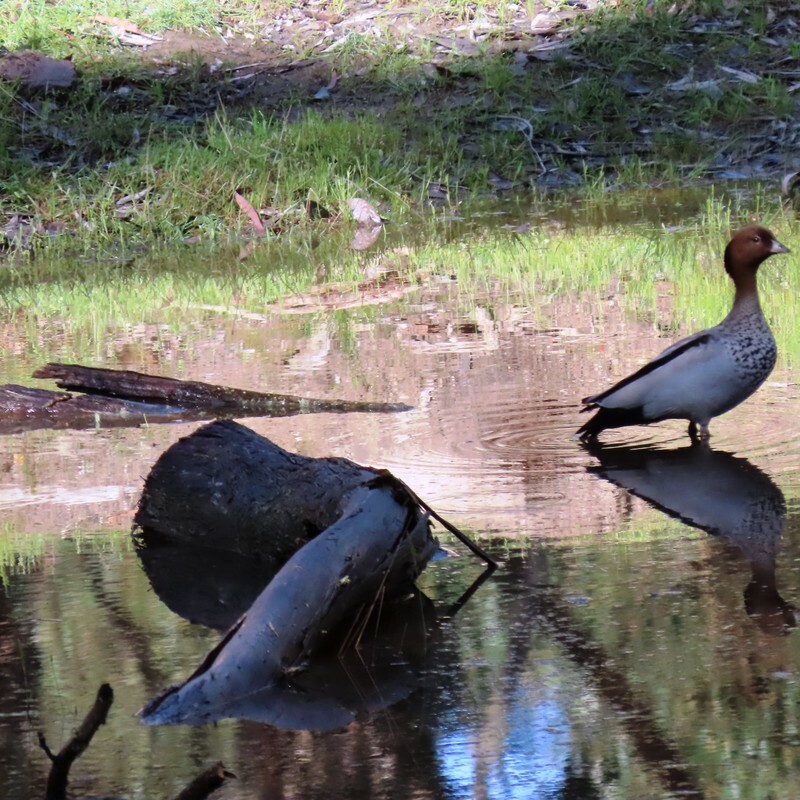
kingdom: Animalia
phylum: Chordata
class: Aves
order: Anseriformes
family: Anatidae
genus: Chenonetta
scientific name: Chenonetta jubata
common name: Maned duck
